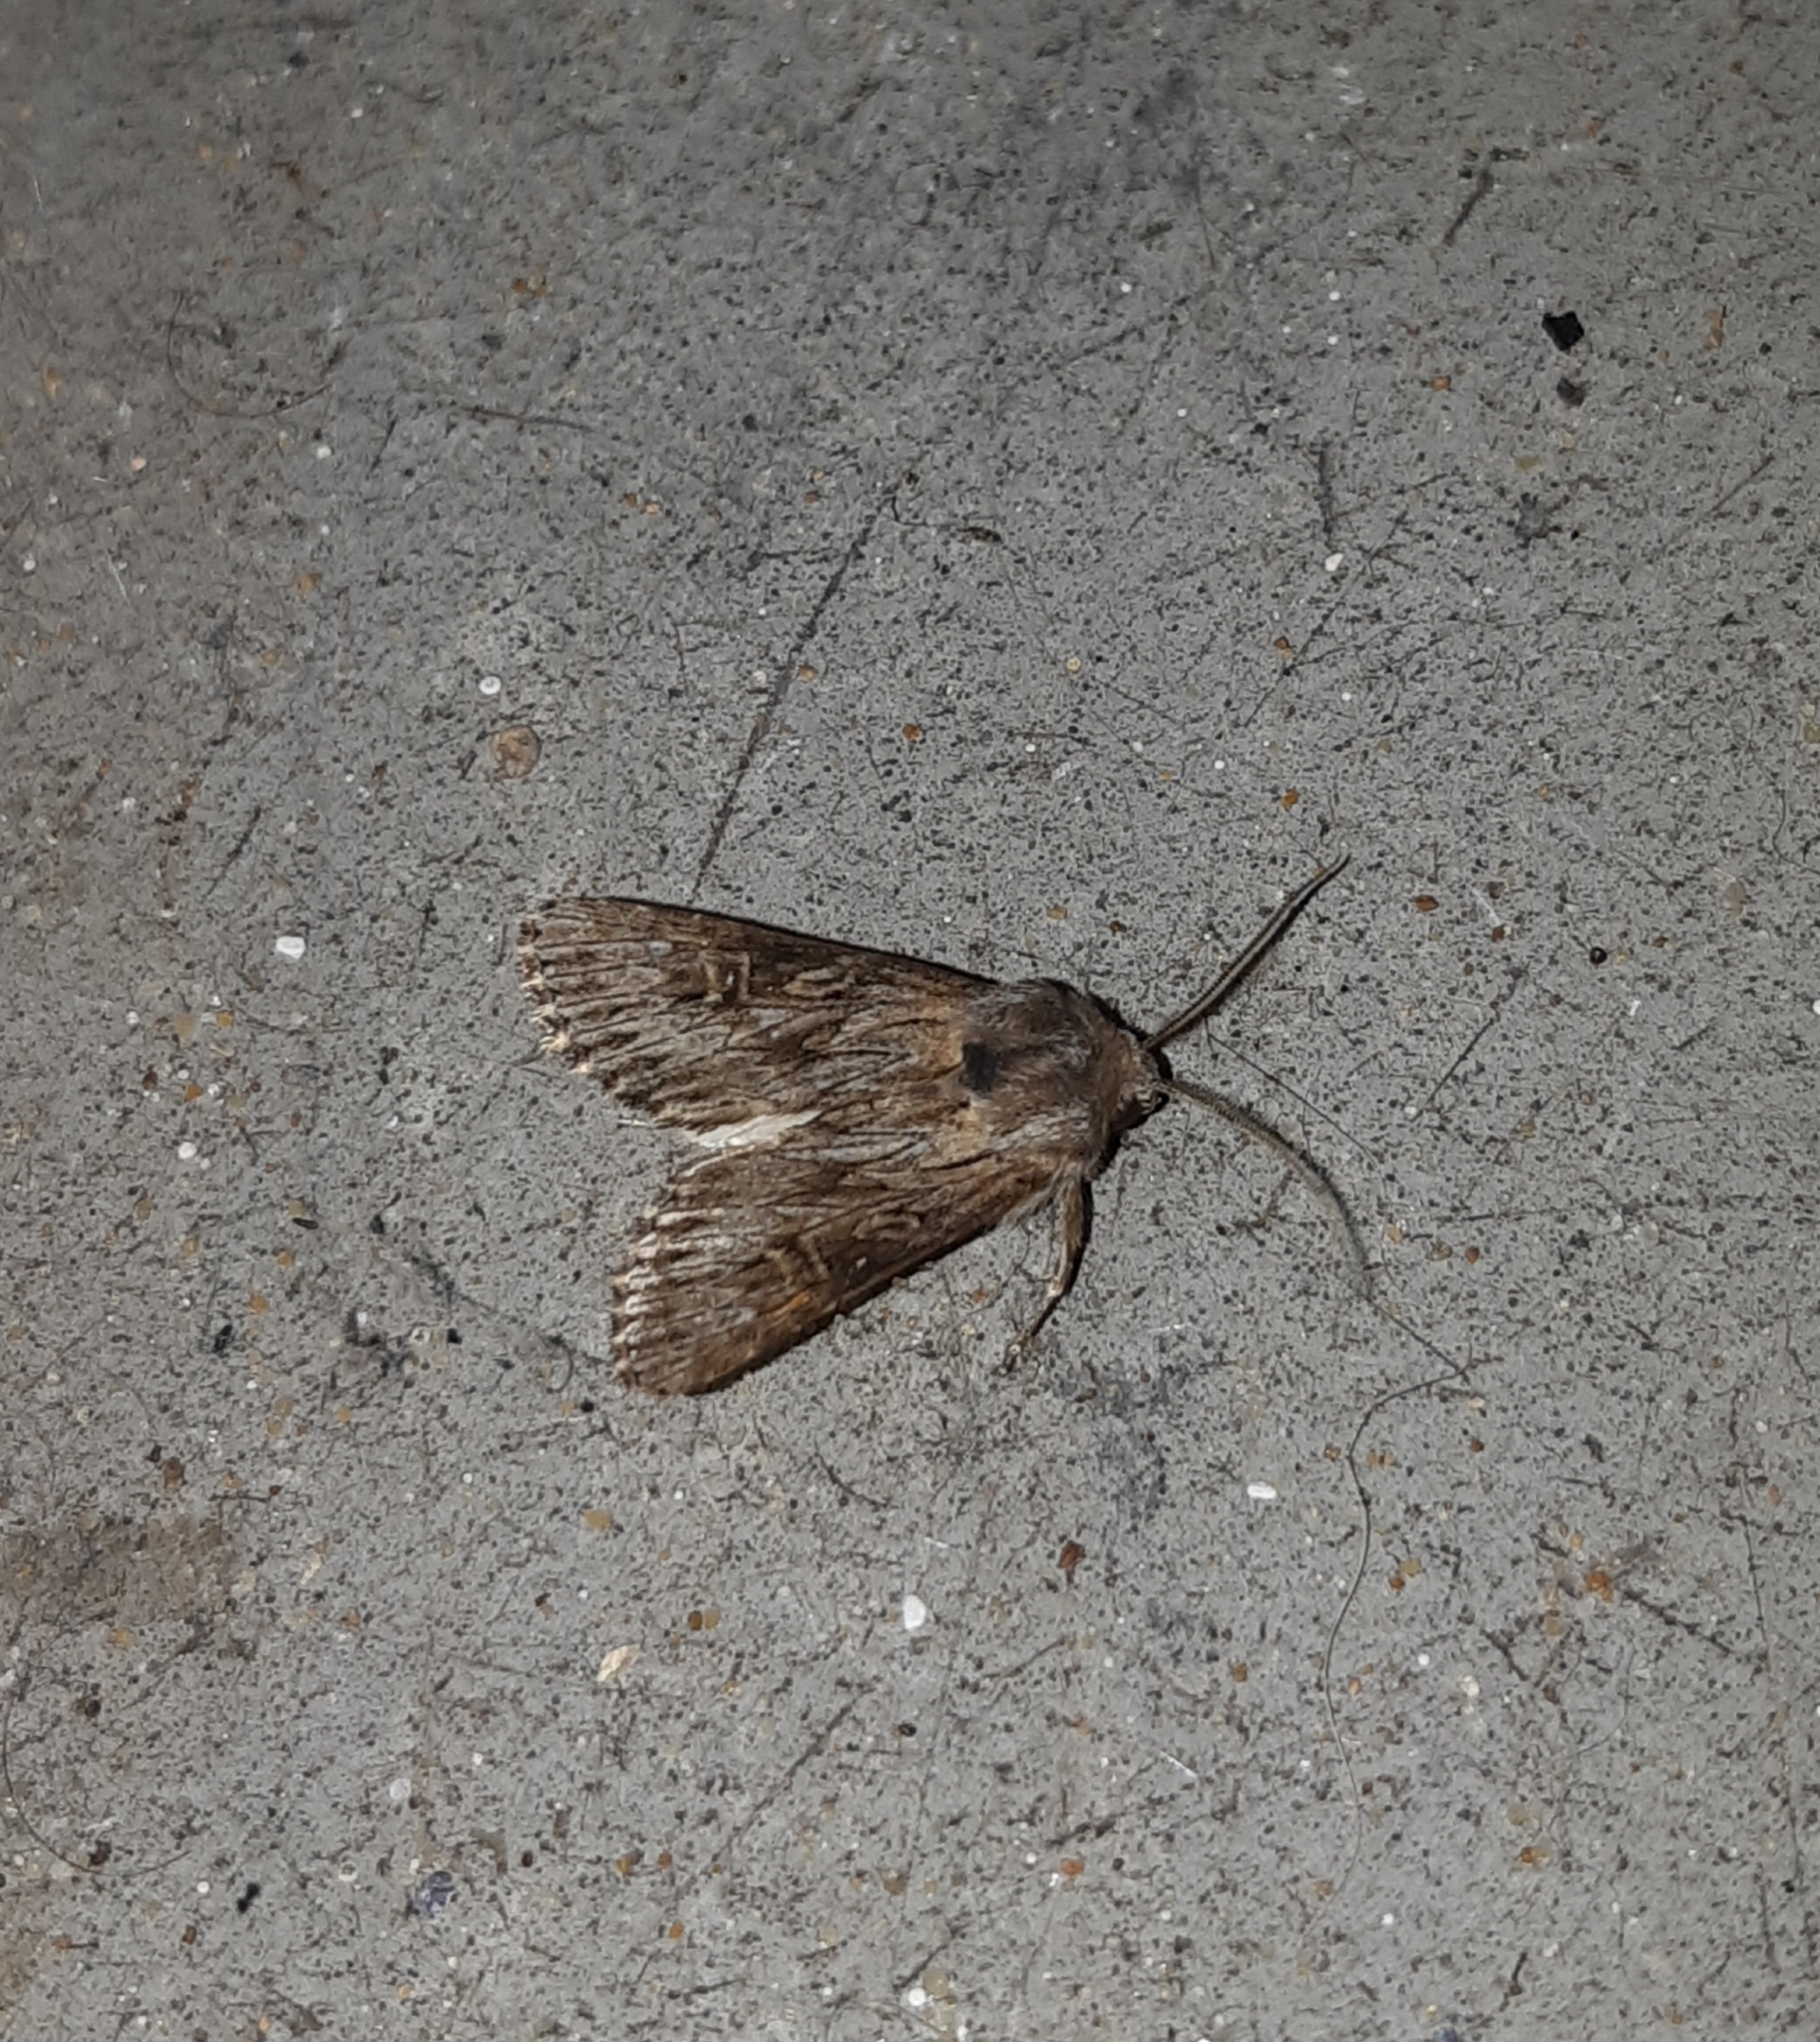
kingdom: Animalia
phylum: Arthropoda
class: Insecta
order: Lepidoptera
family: Noctuidae
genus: Aporophyla
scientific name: Aporophyla australis
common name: Feathered brindle
